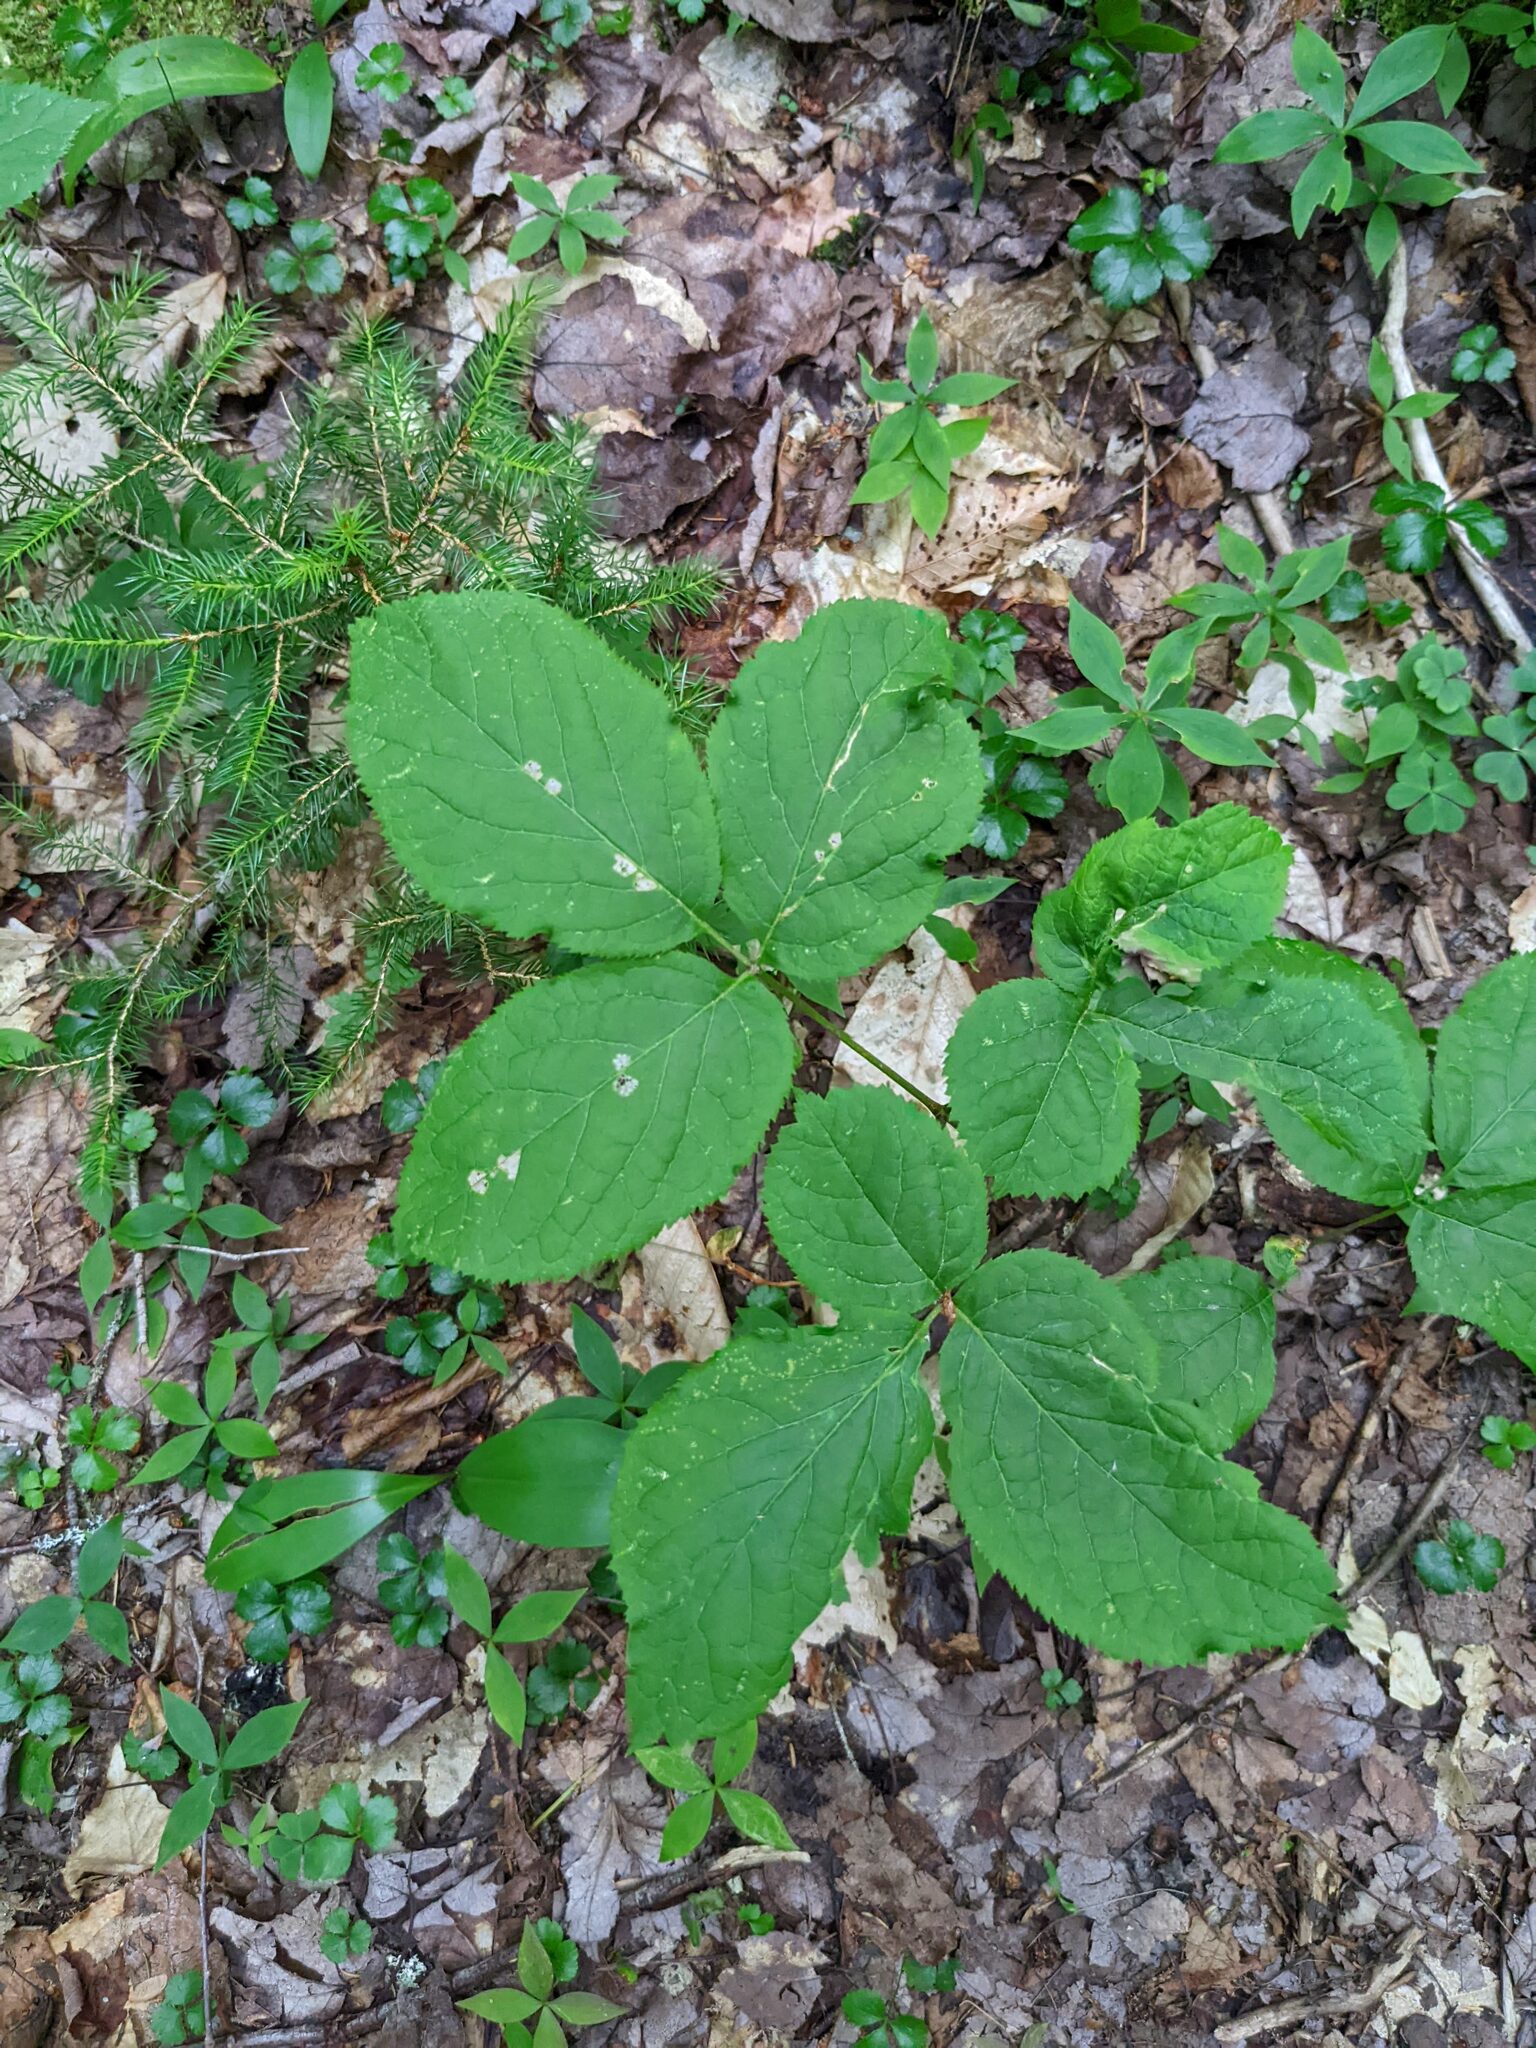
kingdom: Plantae
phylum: Tracheophyta
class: Magnoliopsida
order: Apiales
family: Araliaceae
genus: Aralia
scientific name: Aralia nudicaulis
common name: Wild sarsaparilla
